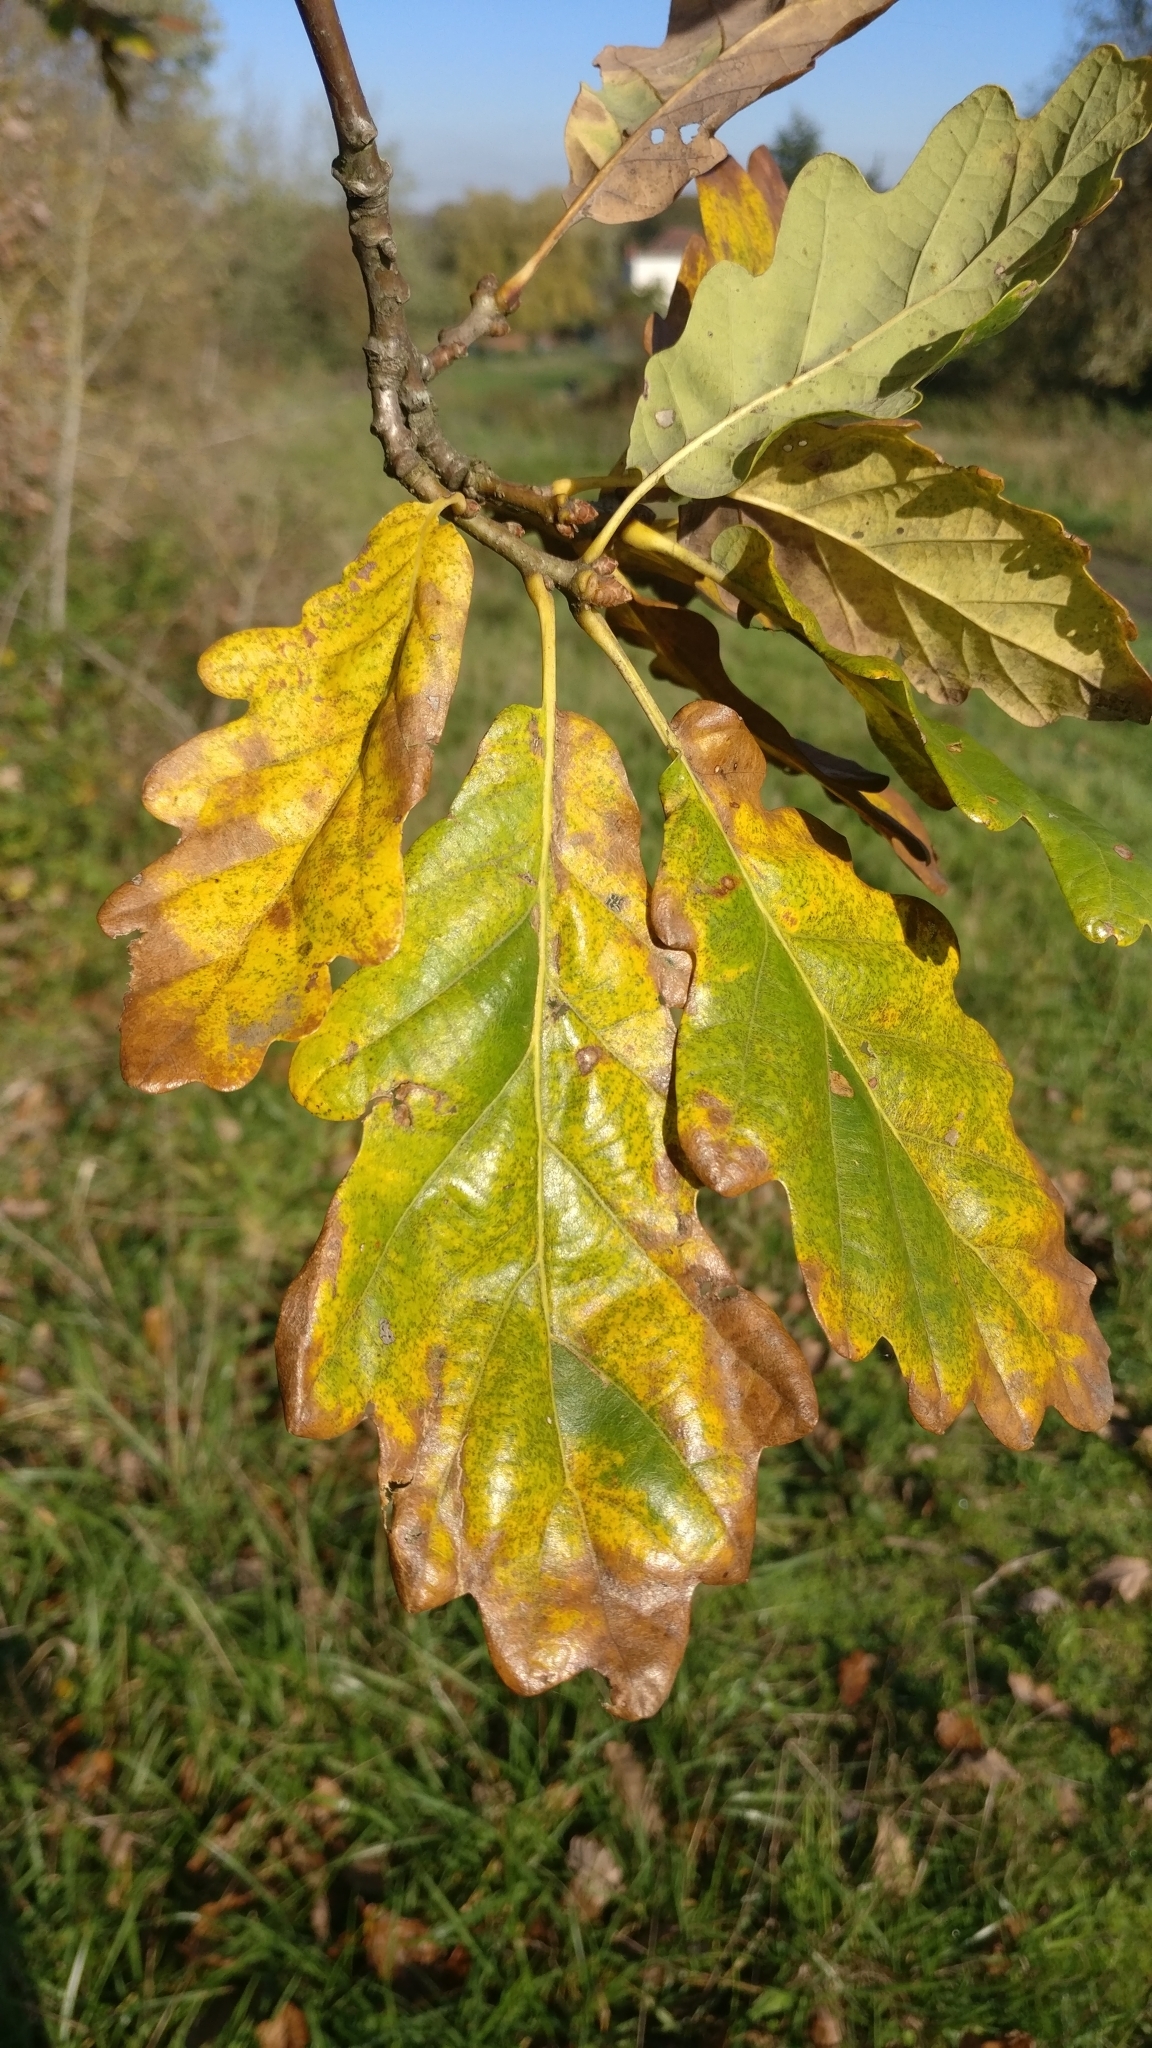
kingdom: Plantae
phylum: Tracheophyta
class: Magnoliopsida
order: Fagales
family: Fagaceae
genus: Quercus
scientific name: Quercus petraea
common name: Sessile oak
